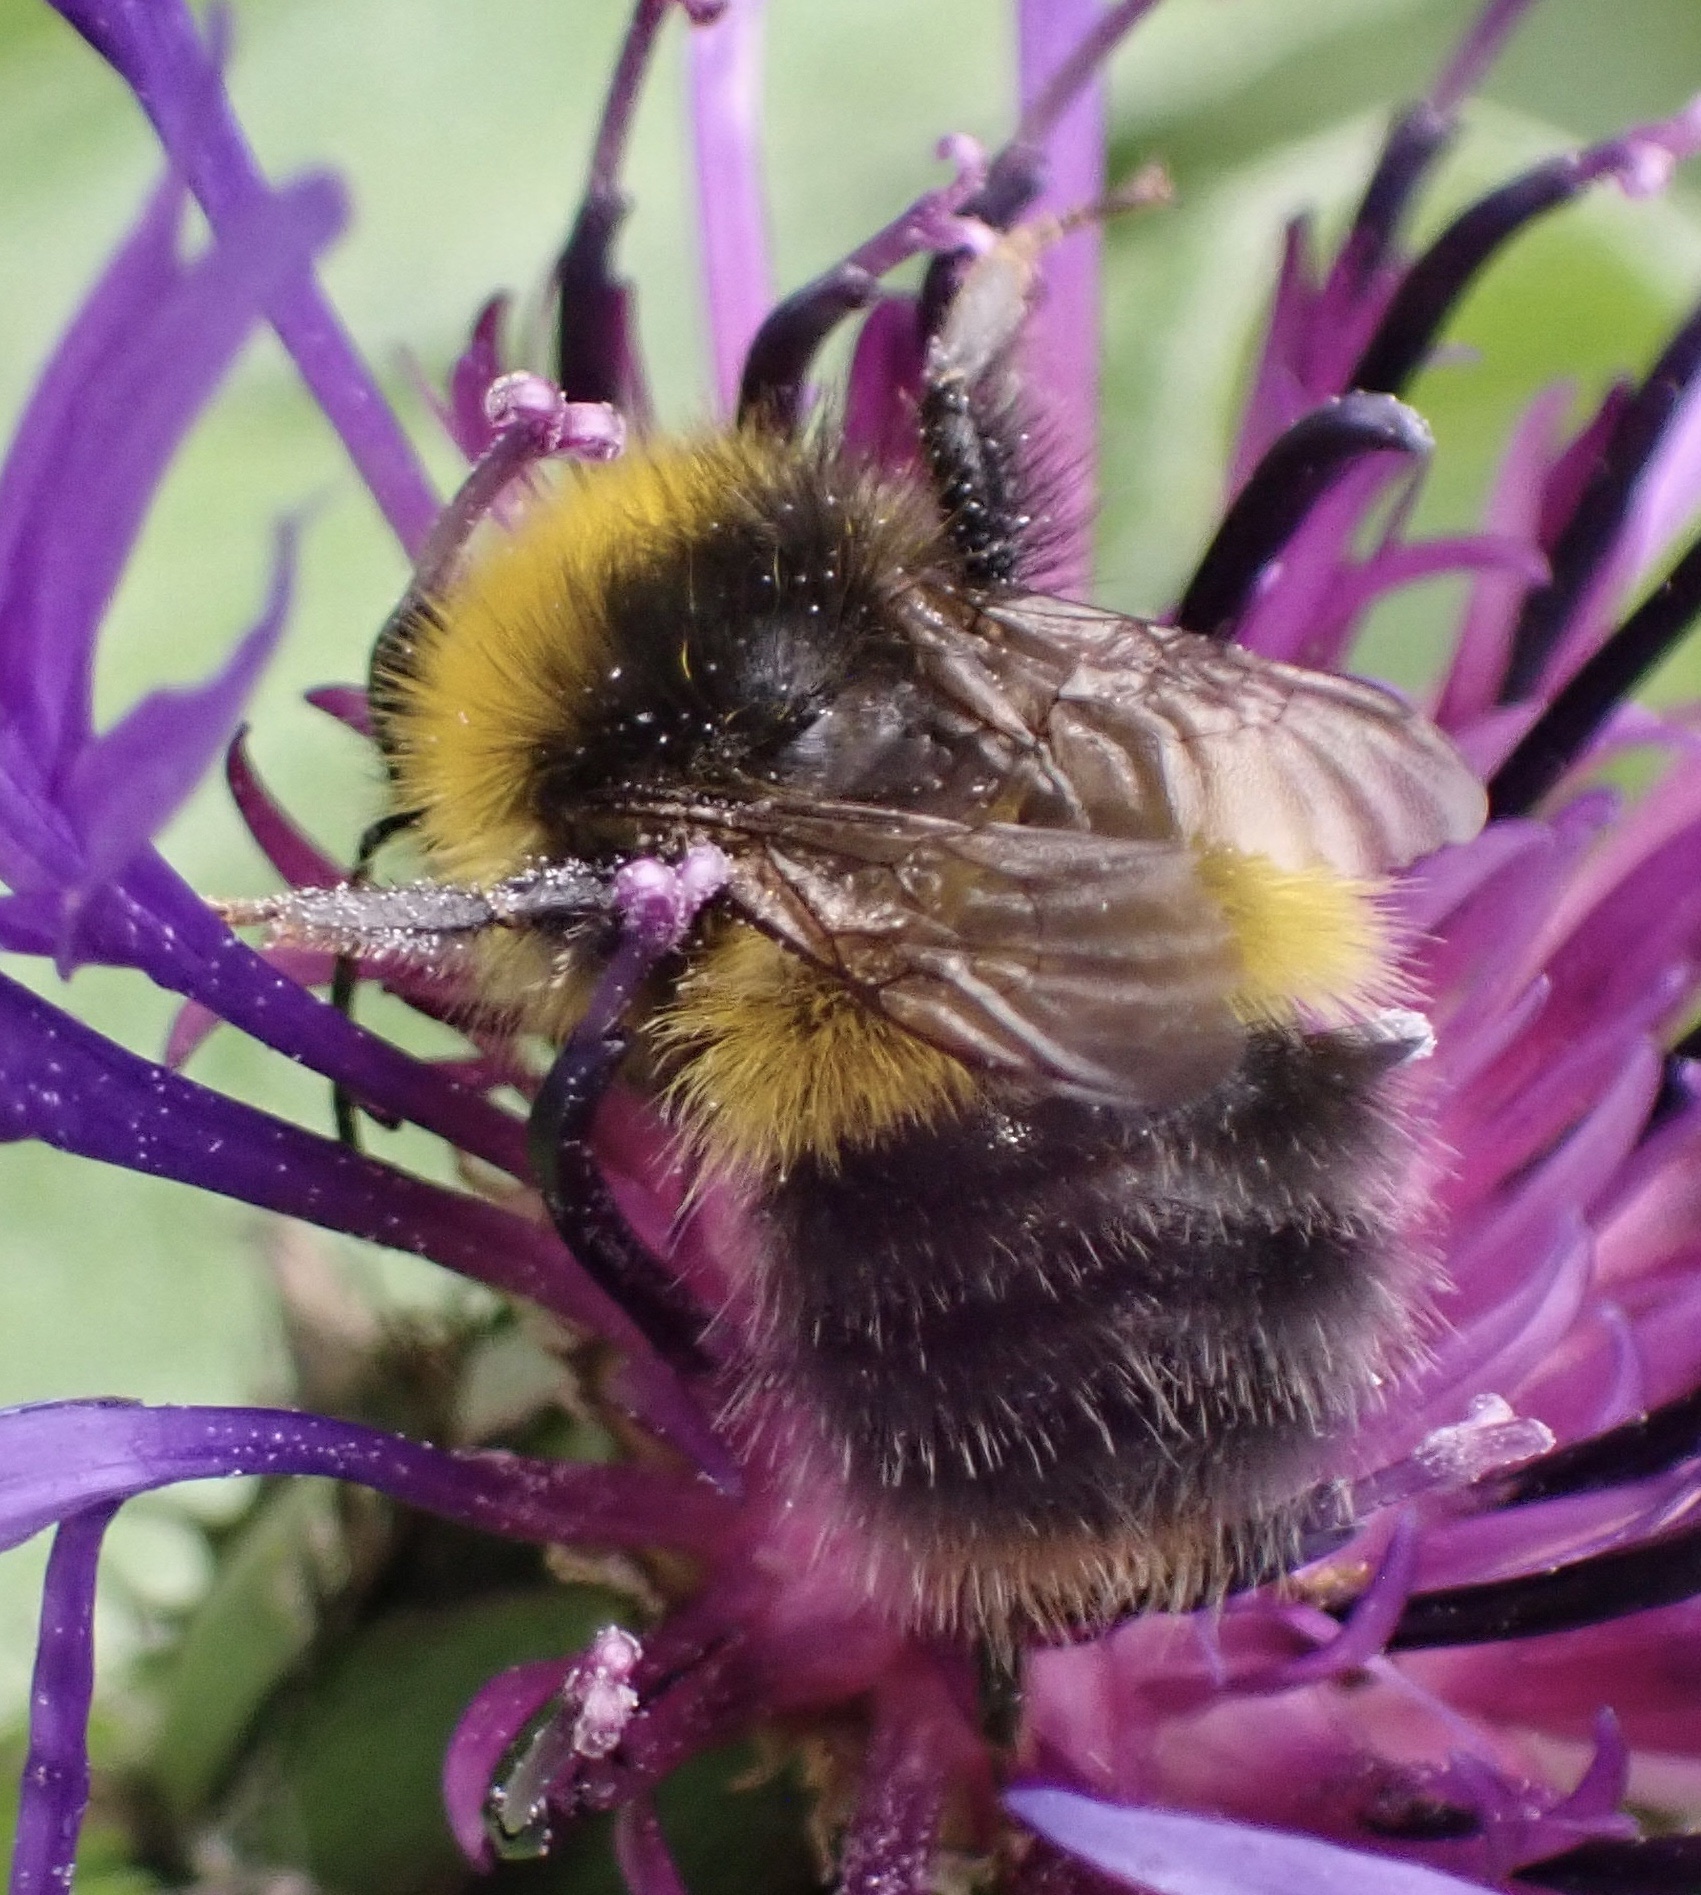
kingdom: Animalia
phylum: Arthropoda
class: Insecta
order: Hymenoptera
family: Apidae
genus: Bombus
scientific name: Bombus pratorum
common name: Early humble-bee
